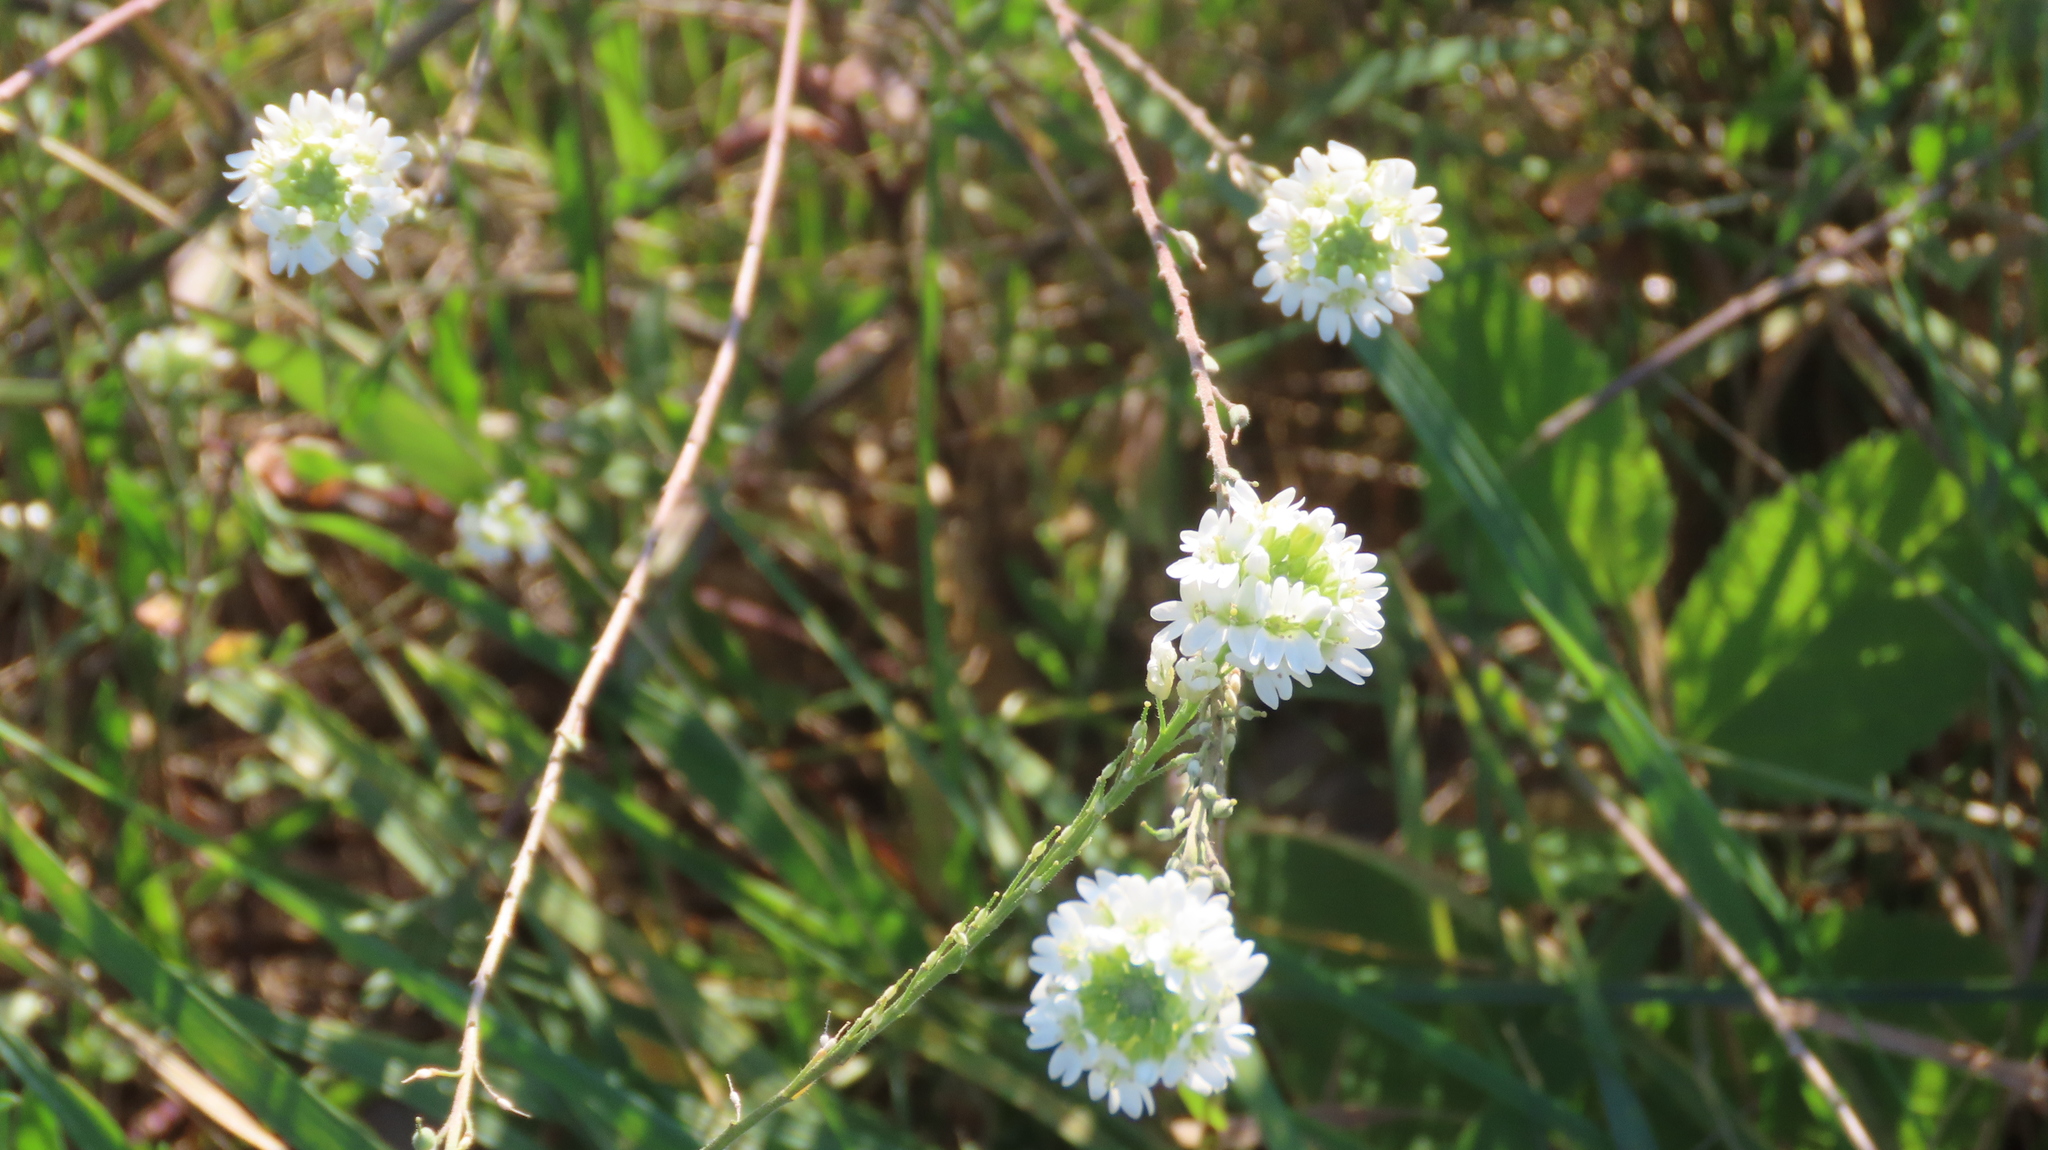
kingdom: Plantae
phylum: Tracheophyta
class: Magnoliopsida
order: Brassicales
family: Brassicaceae
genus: Berteroa
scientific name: Berteroa incana
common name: Hoary alison
